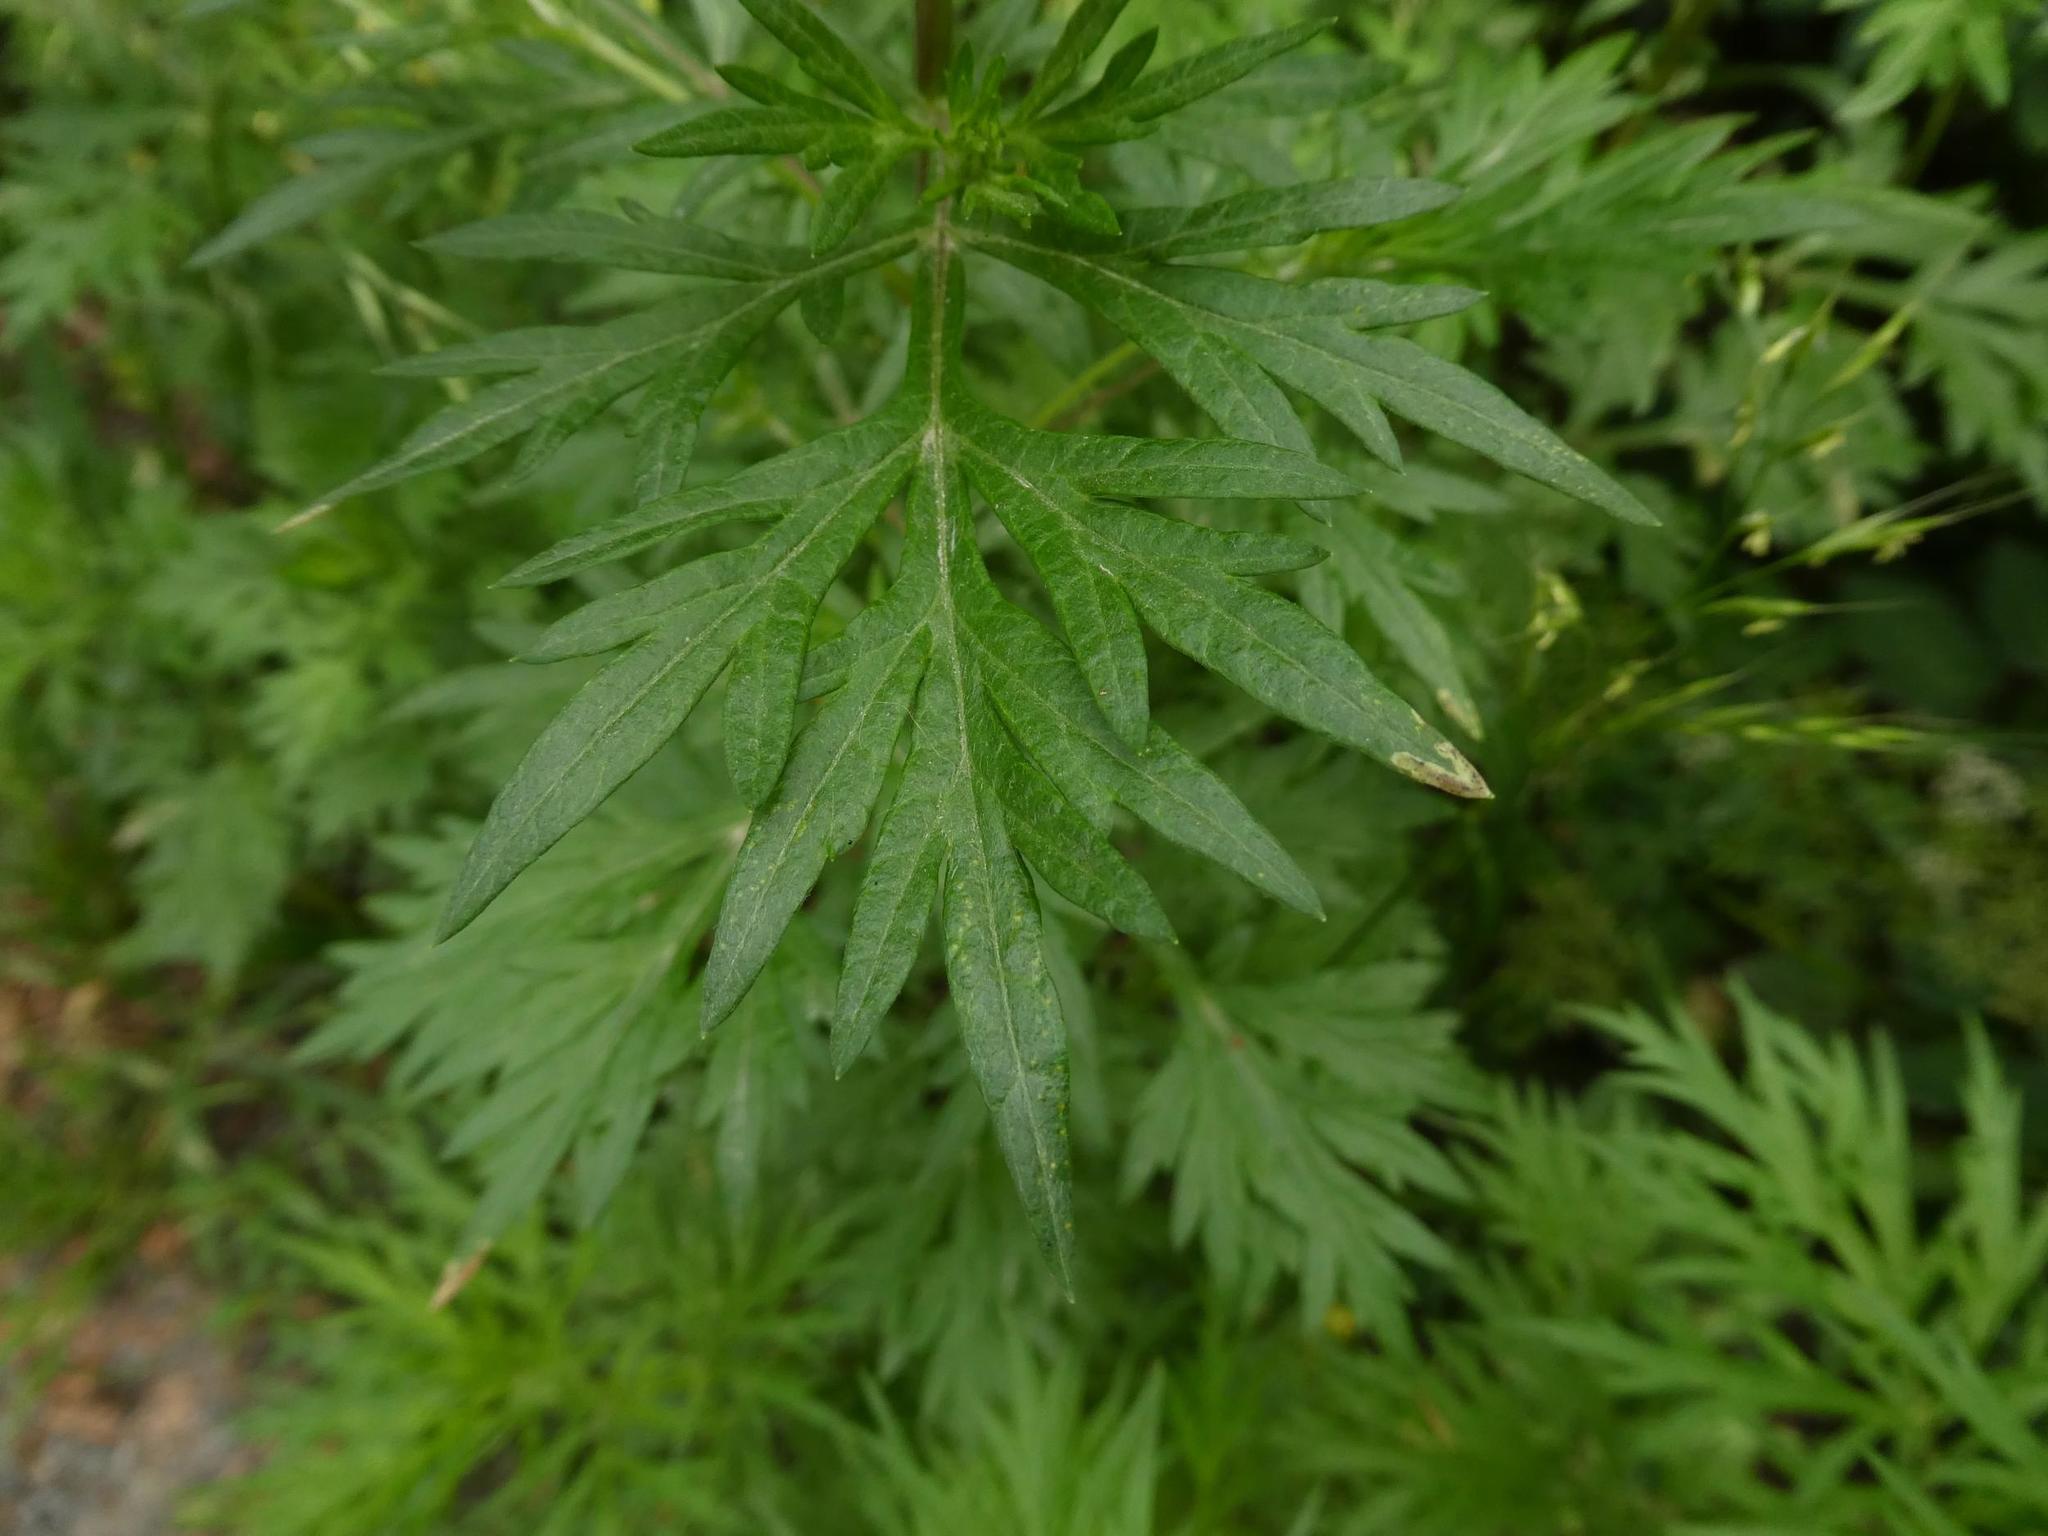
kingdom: Plantae
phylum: Tracheophyta
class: Magnoliopsida
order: Asterales
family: Asteraceae
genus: Artemisia
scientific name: Artemisia vulgaris
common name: Mugwort
